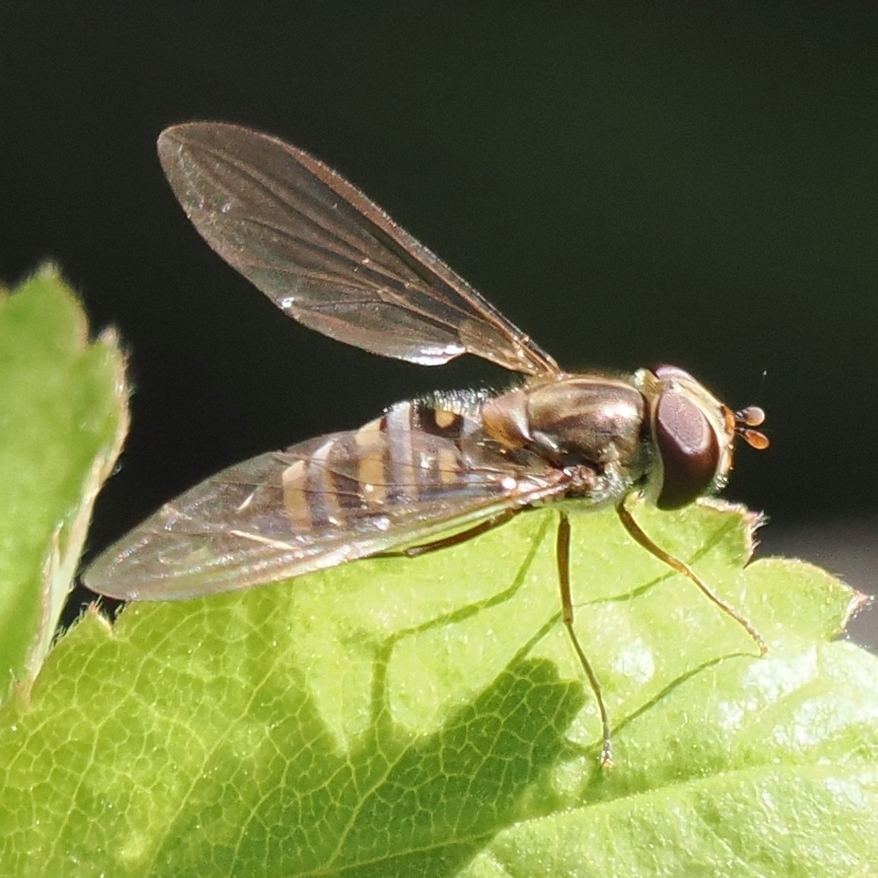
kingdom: Animalia
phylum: Arthropoda
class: Insecta
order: Diptera
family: Syrphidae
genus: Episyrphus
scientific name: Episyrphus balteatus
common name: Marmalade hoverfly
